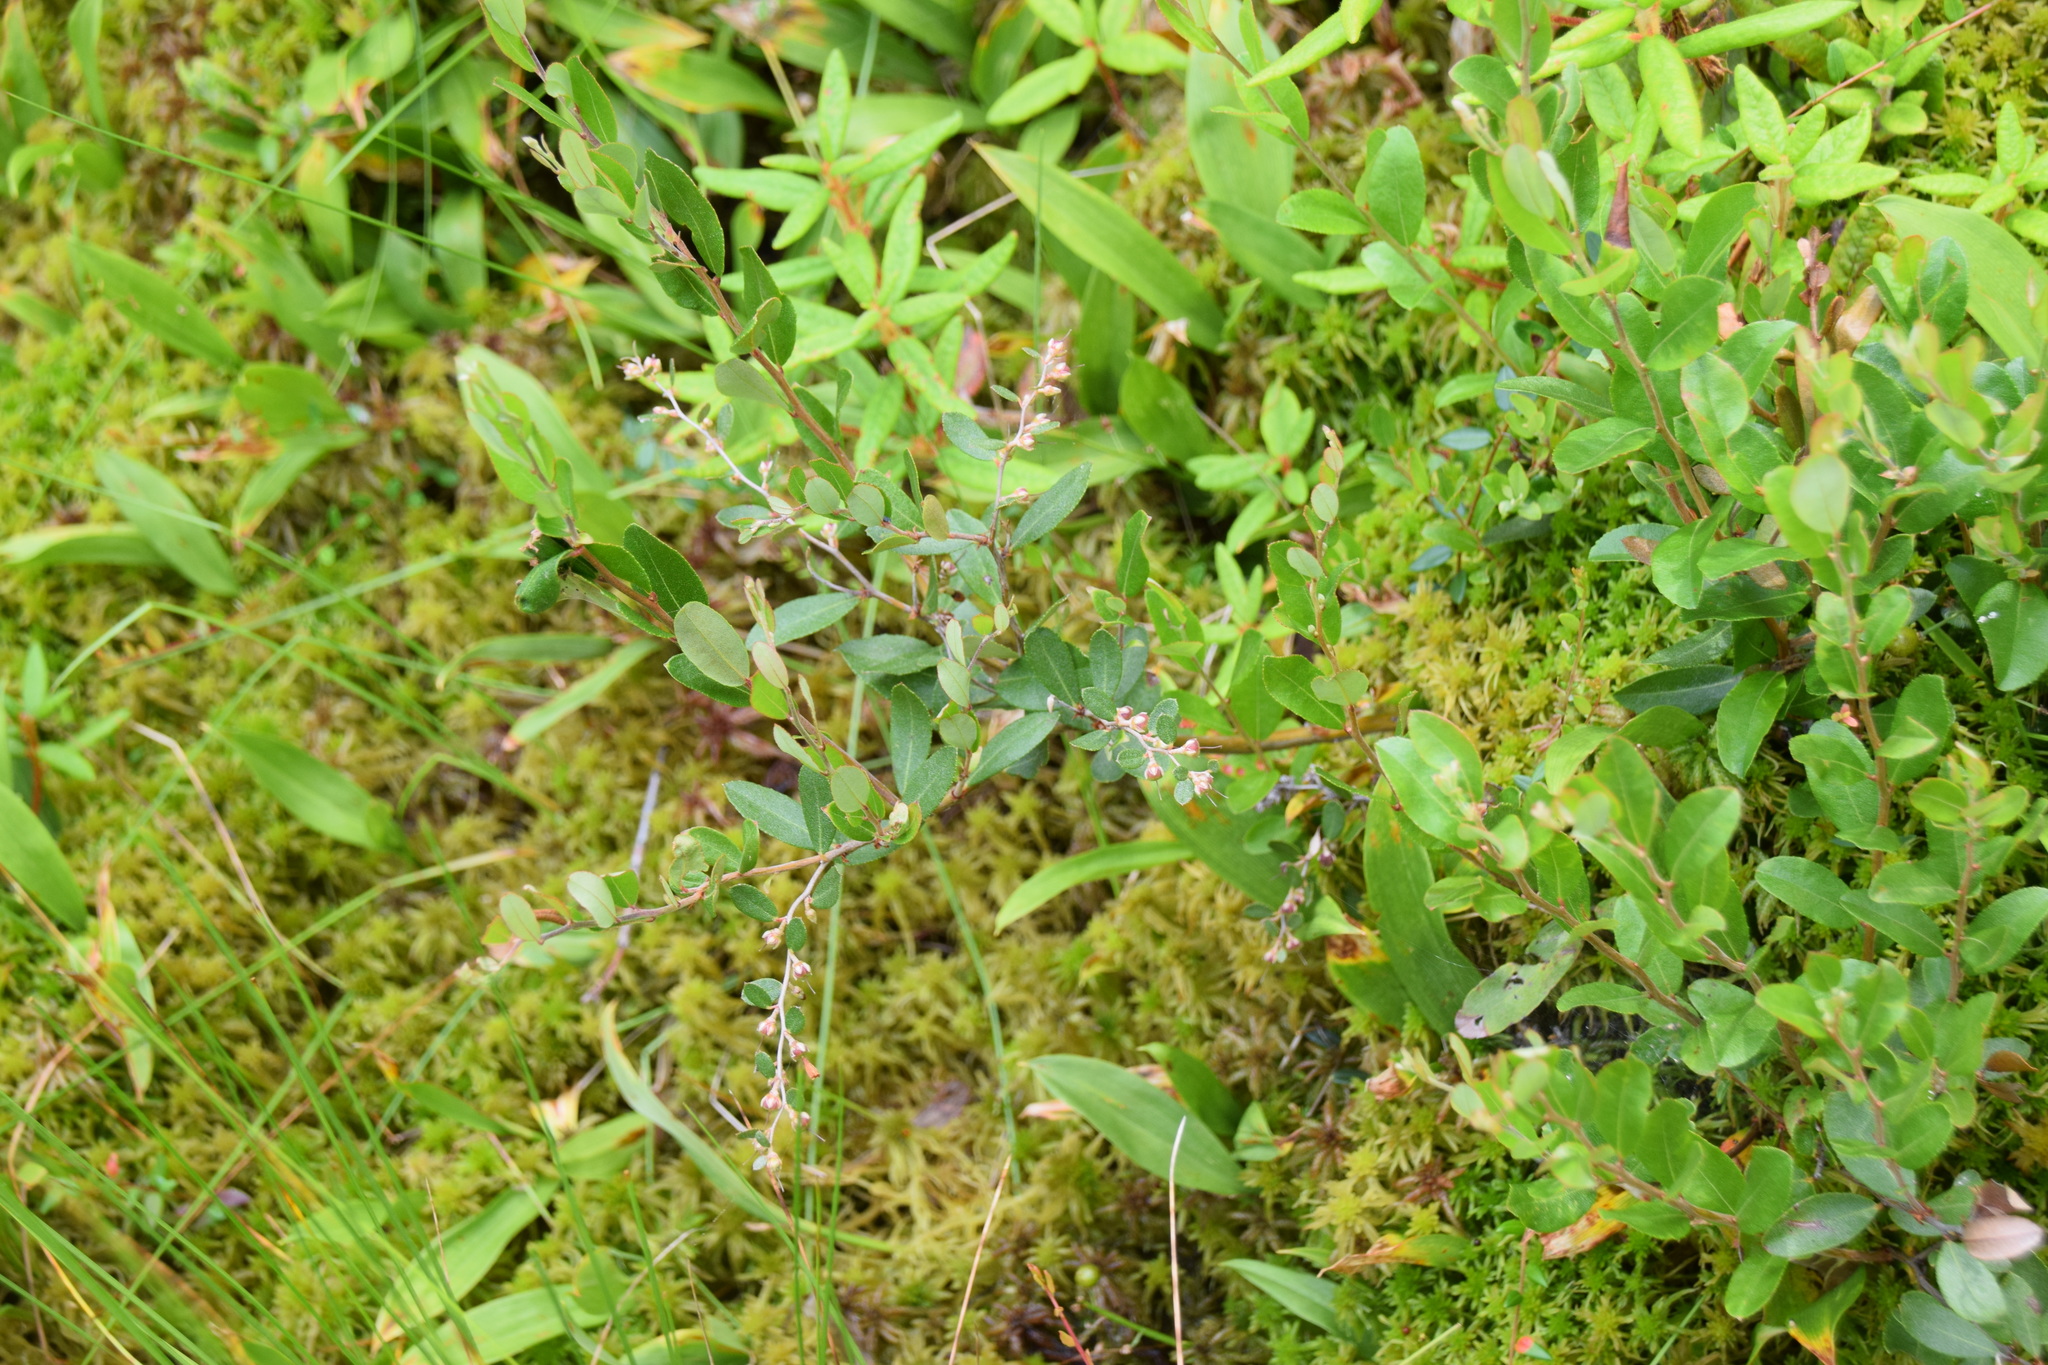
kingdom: Plantae
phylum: Tracheophyta
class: Magnoliopsida
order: Ericales
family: Ericaceae
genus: Chamaedaphne
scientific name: Chamaedaphne calyculata
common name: Leatherleaf
